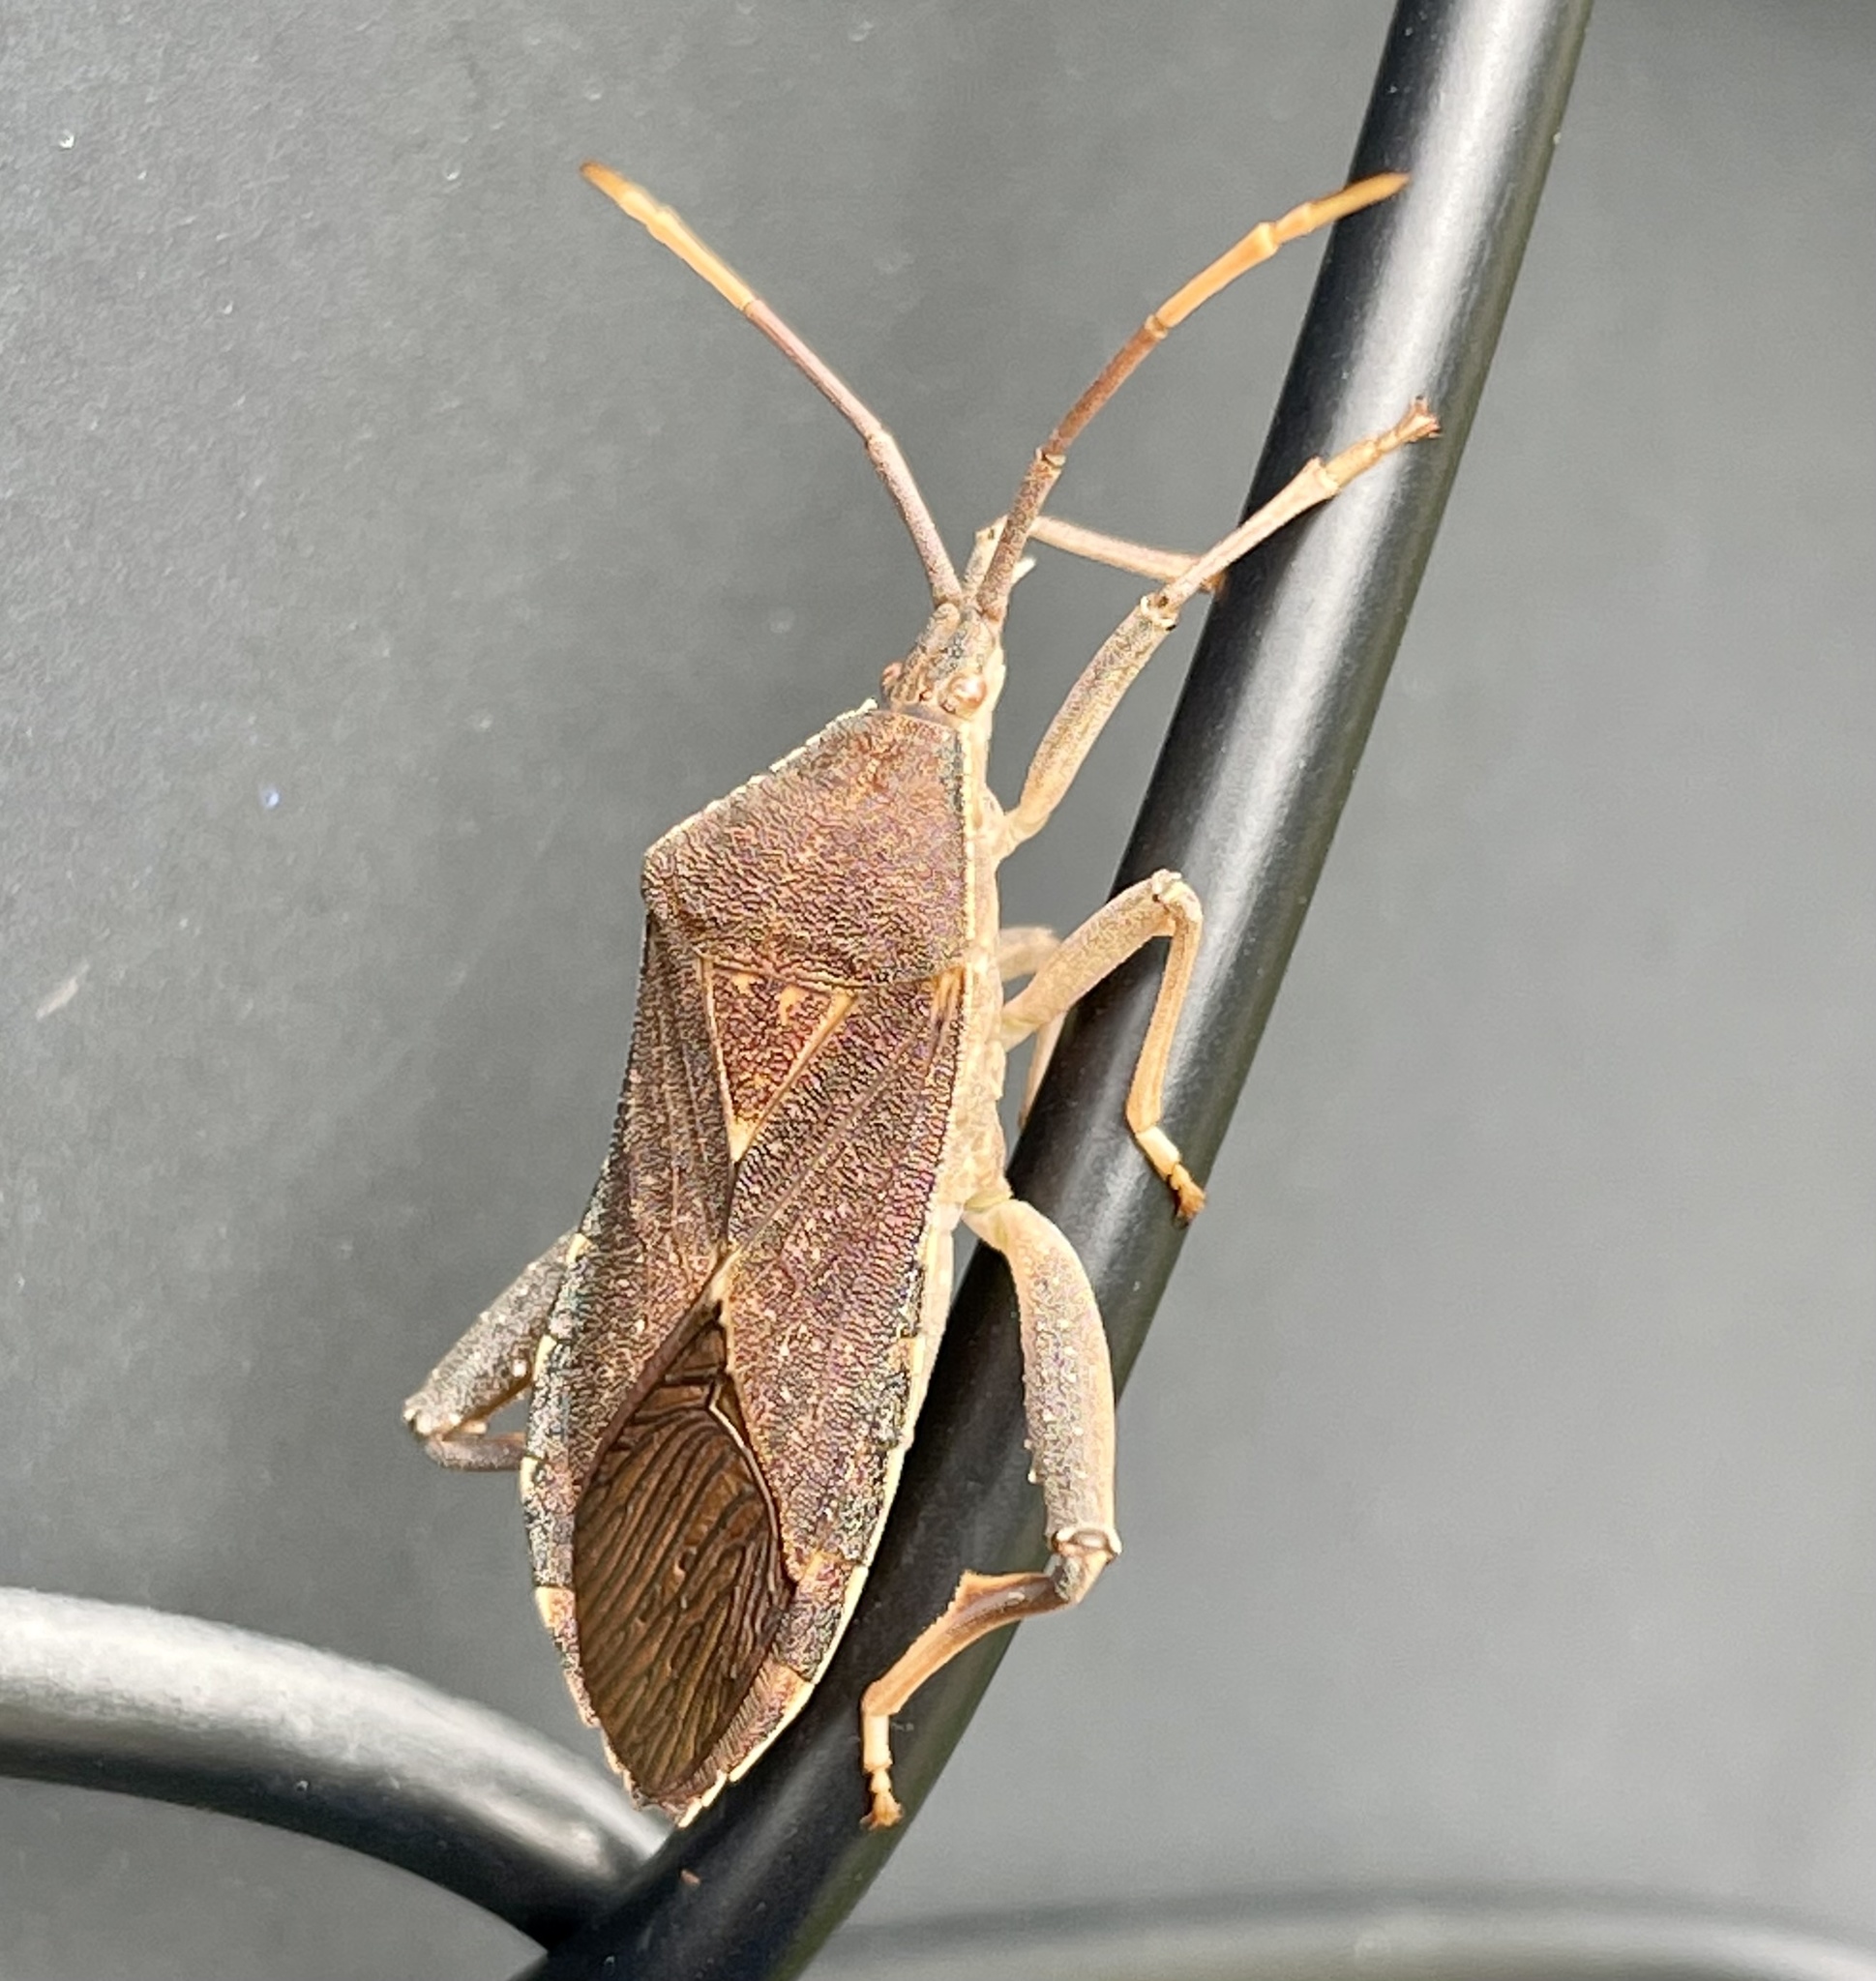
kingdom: Animalia
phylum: Arthropoda
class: Insecta
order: Hemiptera
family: Coreidae
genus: Amorbus
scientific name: Amorbus alternatus
